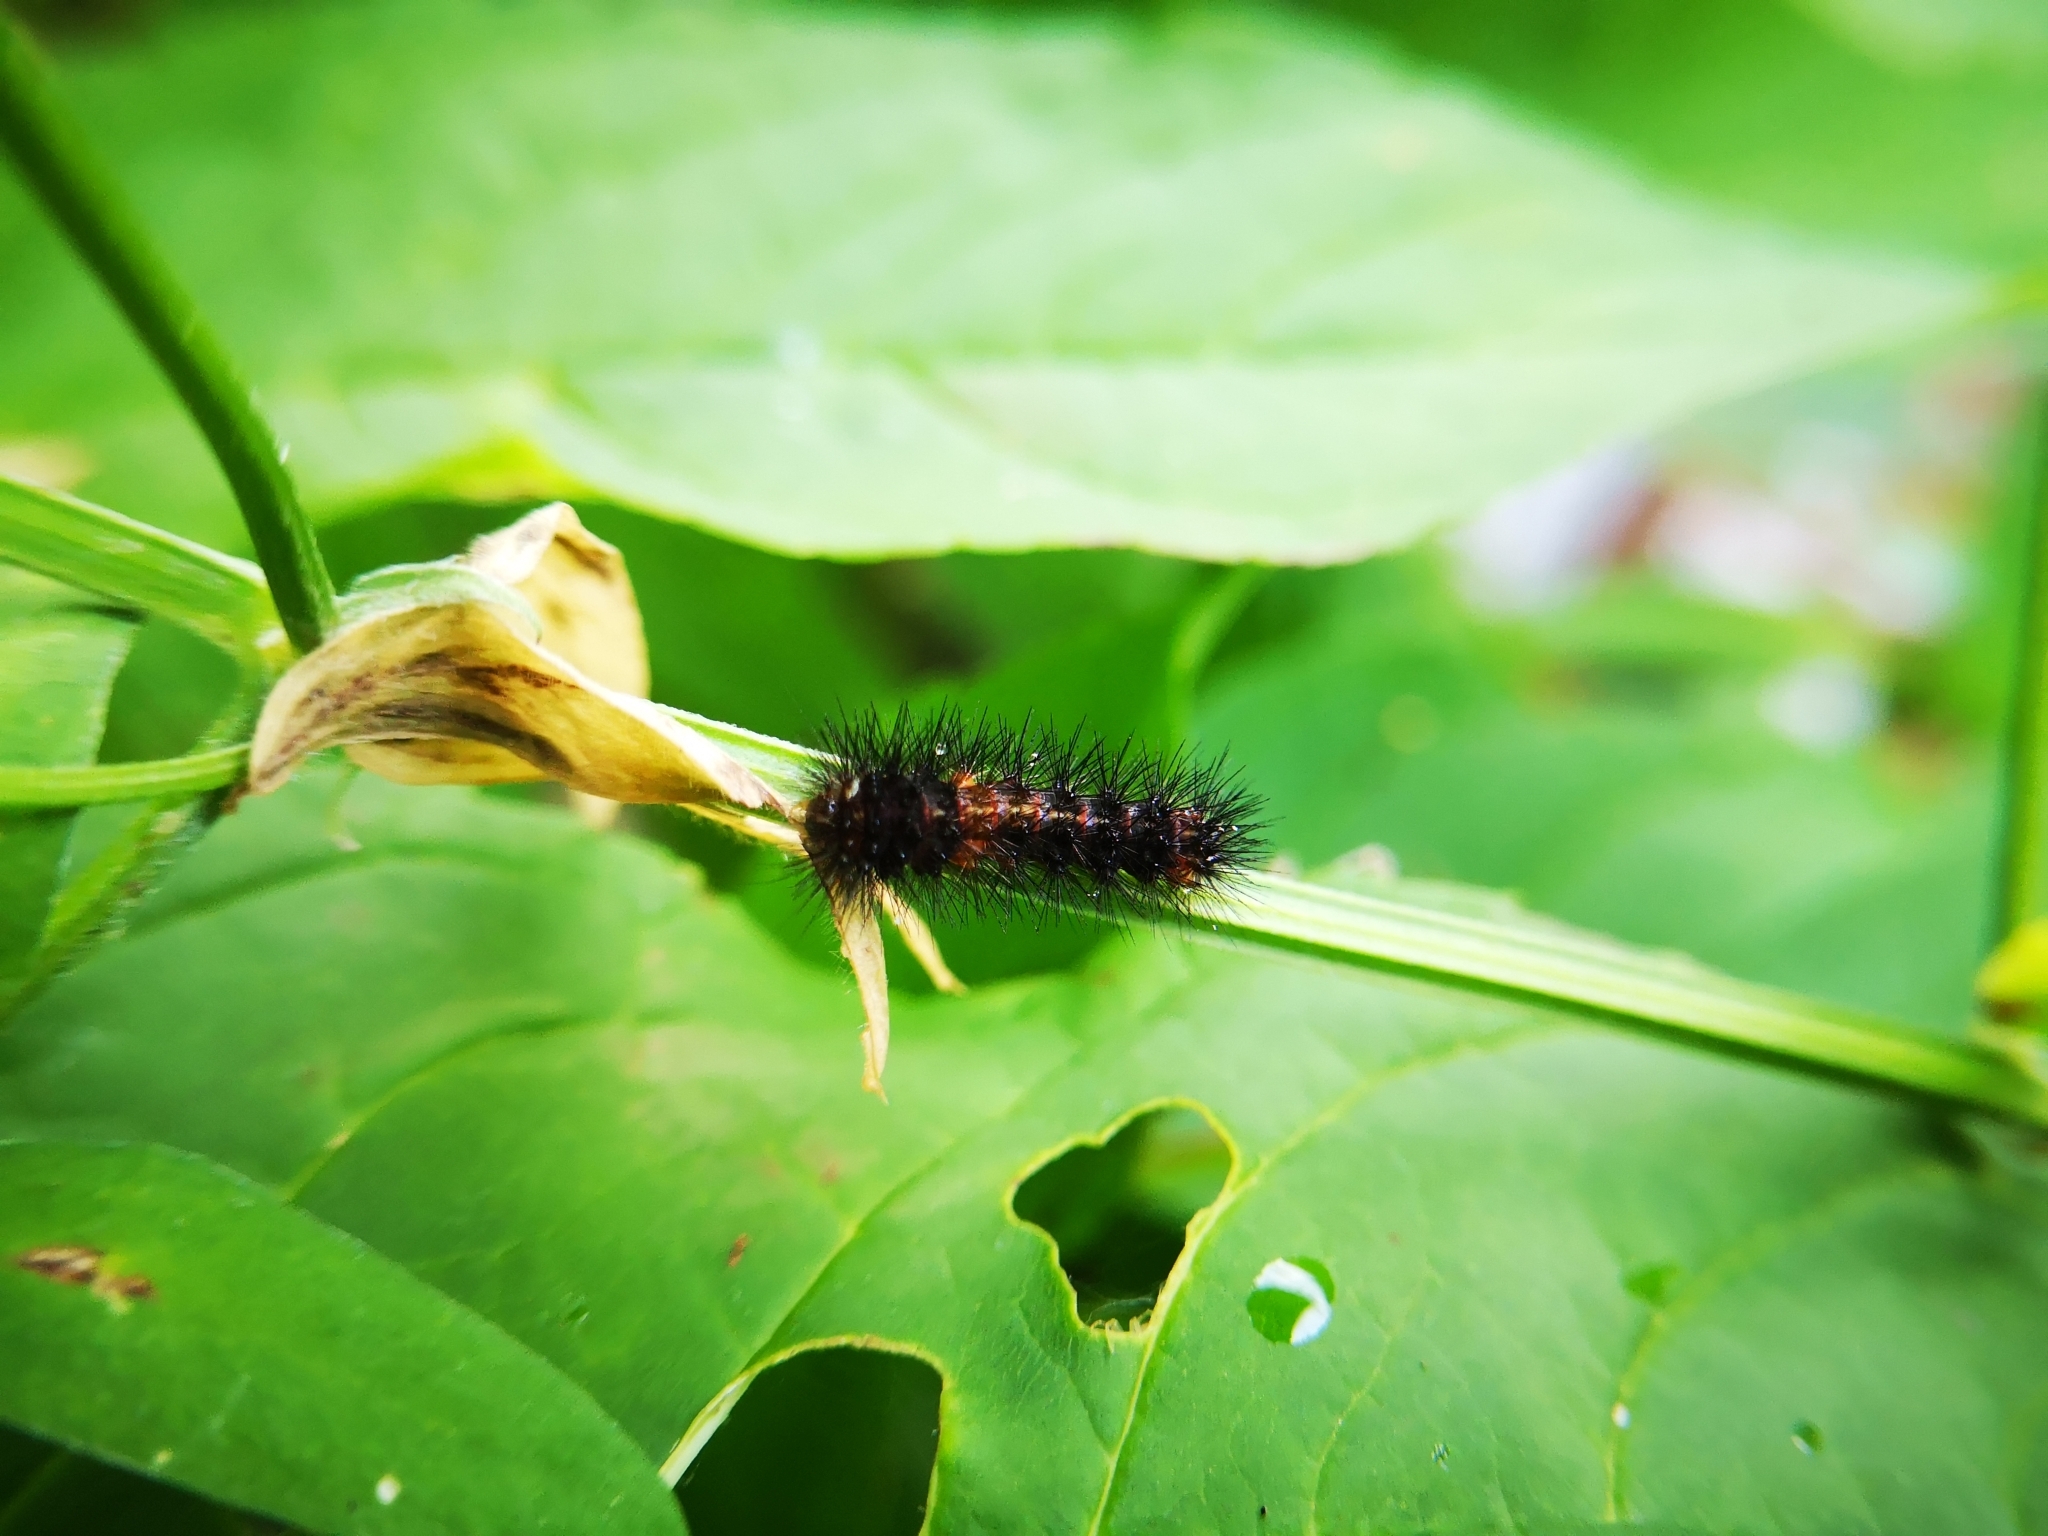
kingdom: Animalia
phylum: Arthropoda
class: Insecta
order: Lepidoptera
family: Erebidae
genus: Hypercompe
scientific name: Hypercompe scribonia
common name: Giant leopard moth
